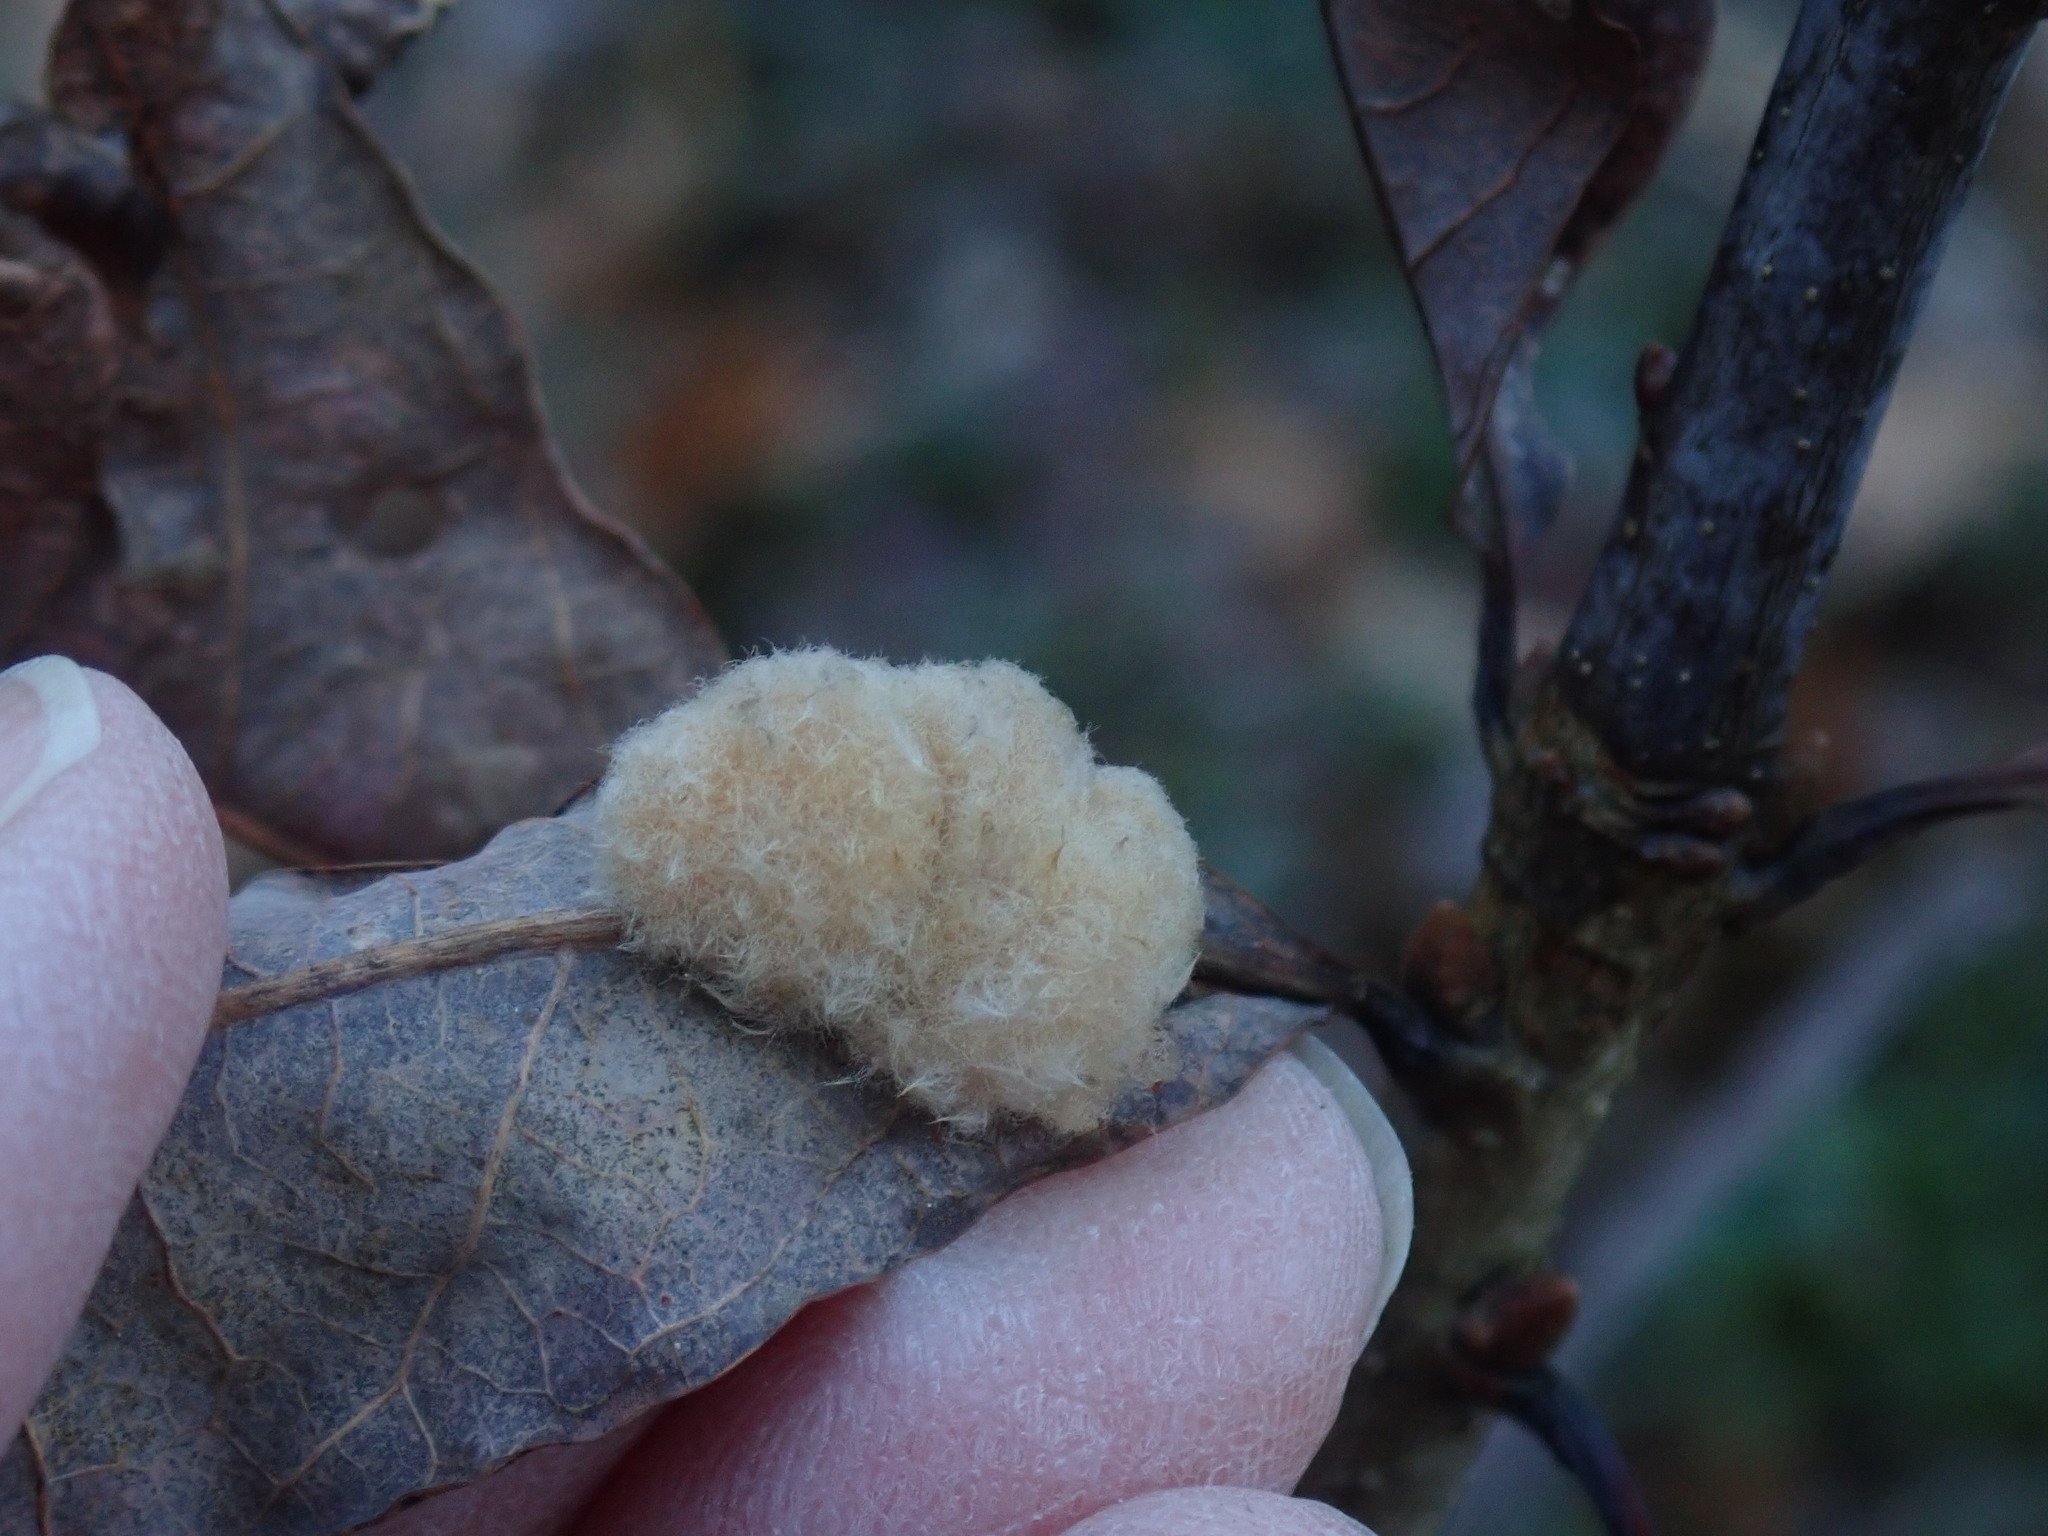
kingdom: Animalia
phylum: Arthropoda
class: Insecta
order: Hymenoptera
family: Cynipidae
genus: Andricus
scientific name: Andricus quercusflocci
